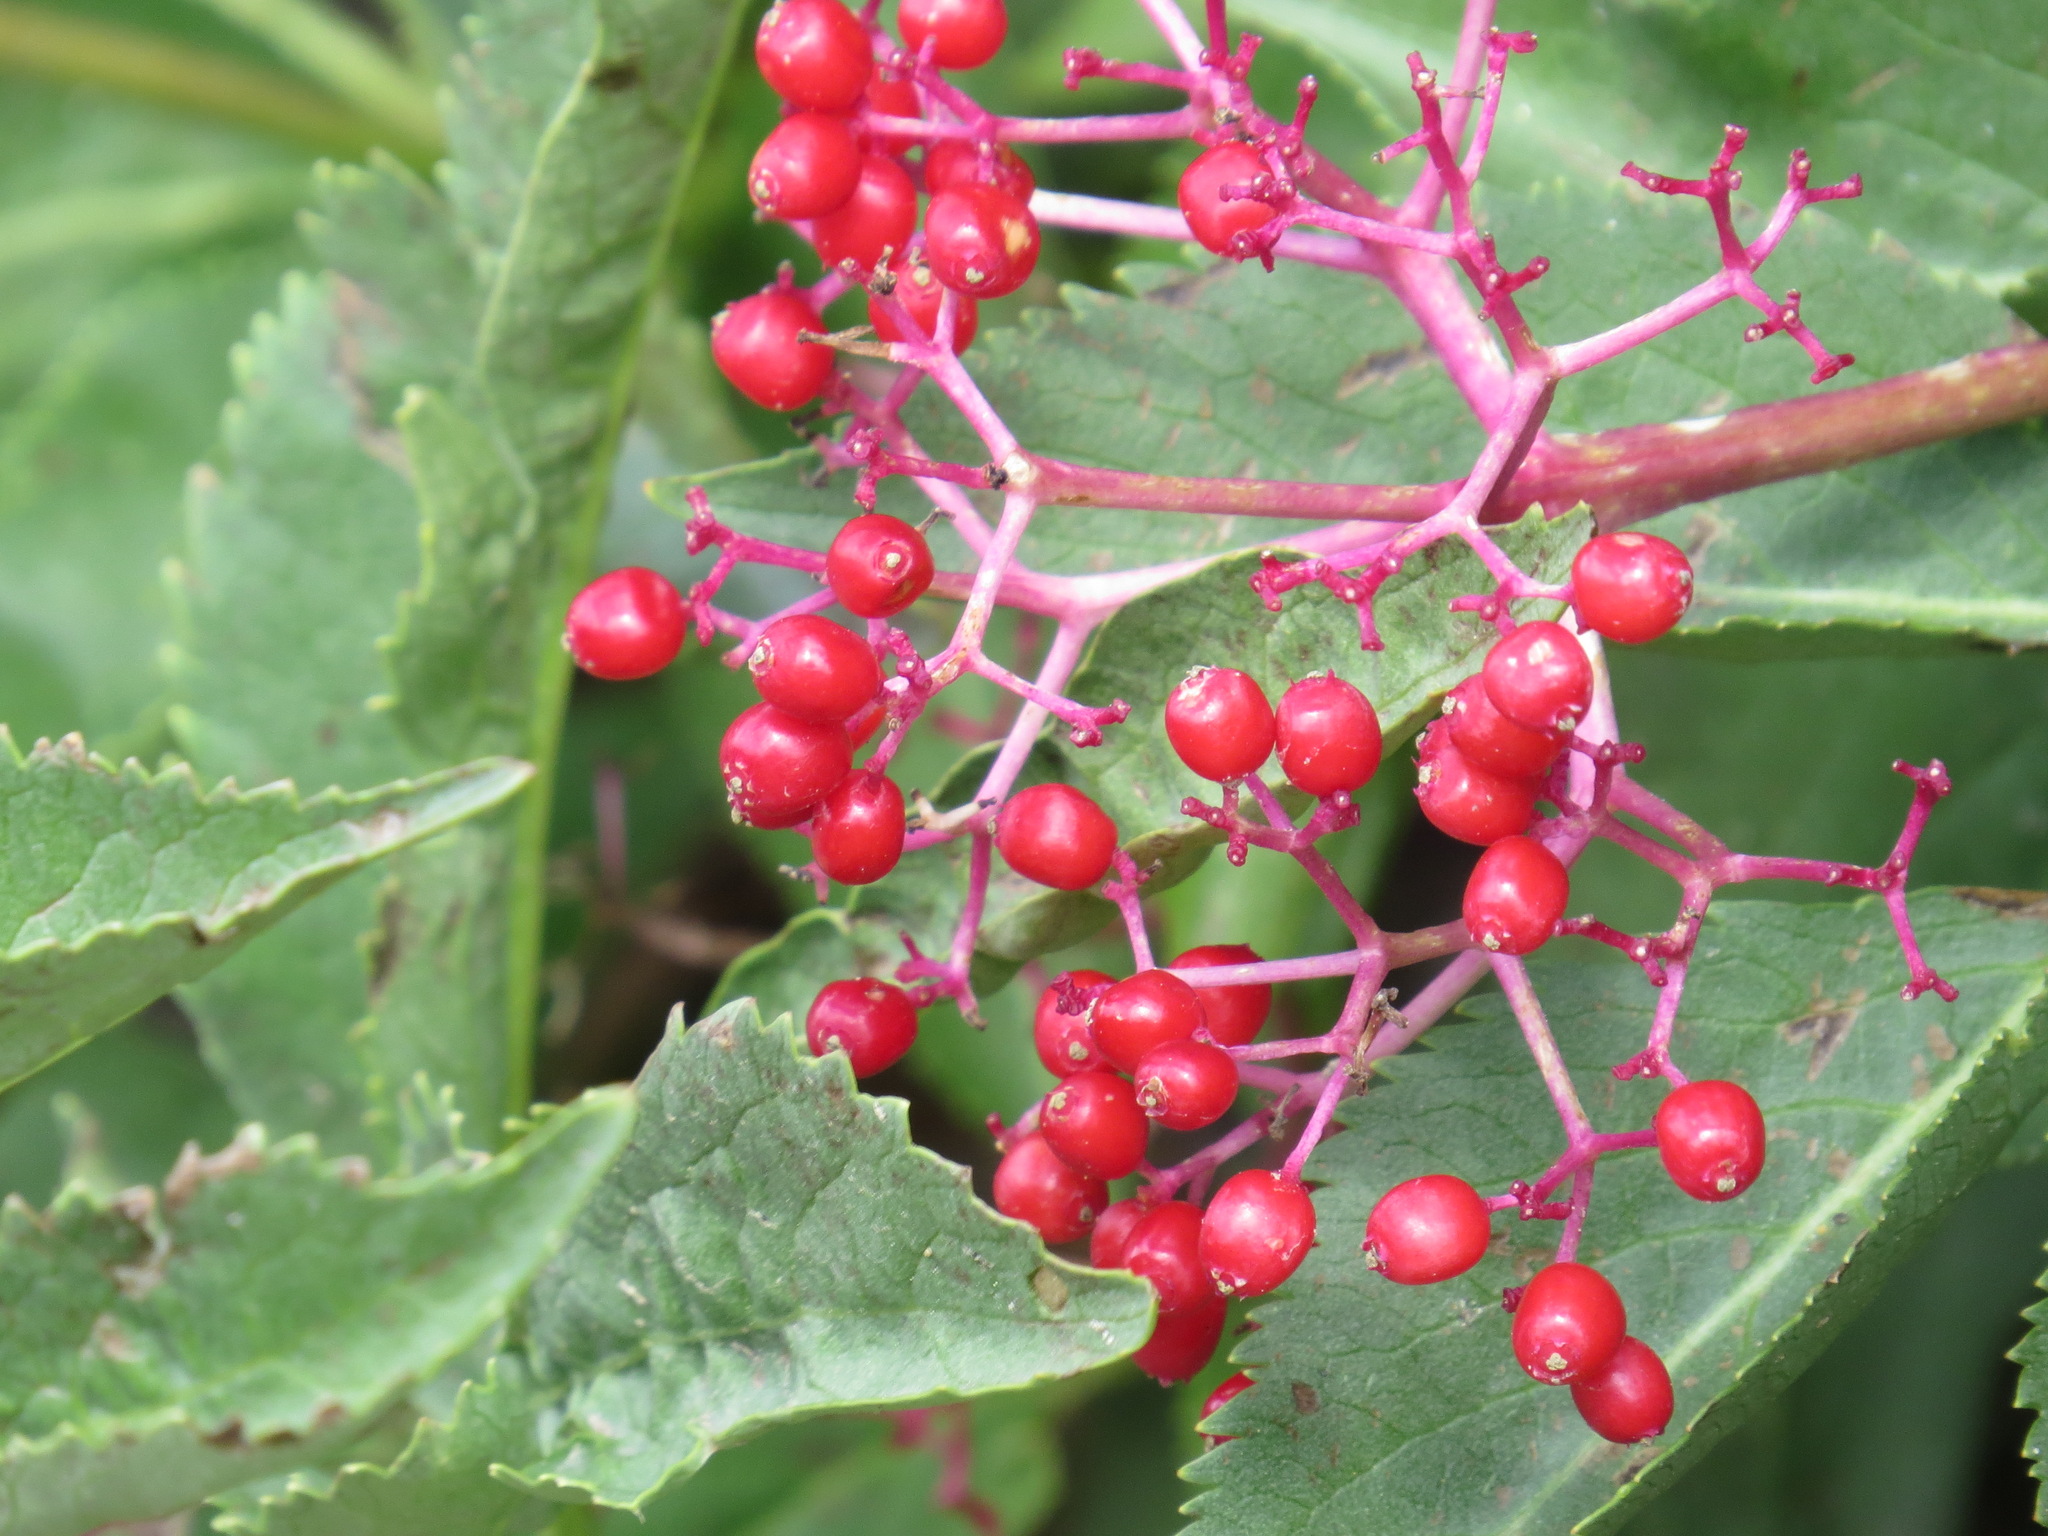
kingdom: Plantae
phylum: Tracheophyta
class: Magnoliopsida
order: Dipsacales
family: Viburnaceae
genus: Sambucus
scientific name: Sambucus racemosa
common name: Red-berried elder
